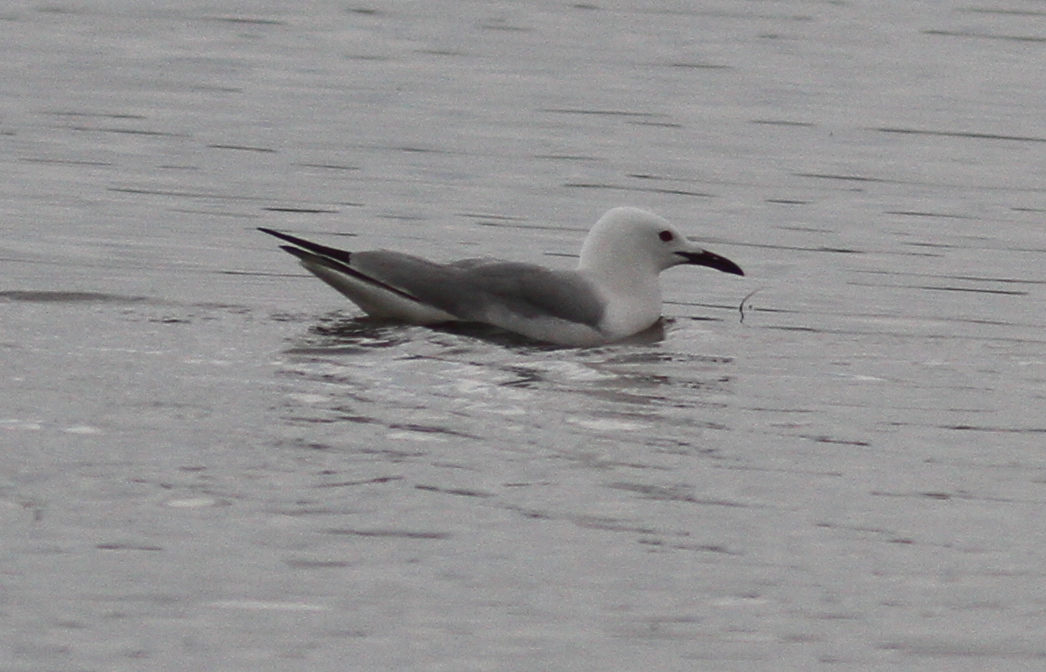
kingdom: Animalia
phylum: Chordata
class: Aves
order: Charadriiformes
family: Laridae
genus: Chroicocephalus
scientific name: Chroicocephalus genei
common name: Slender-billed gull
